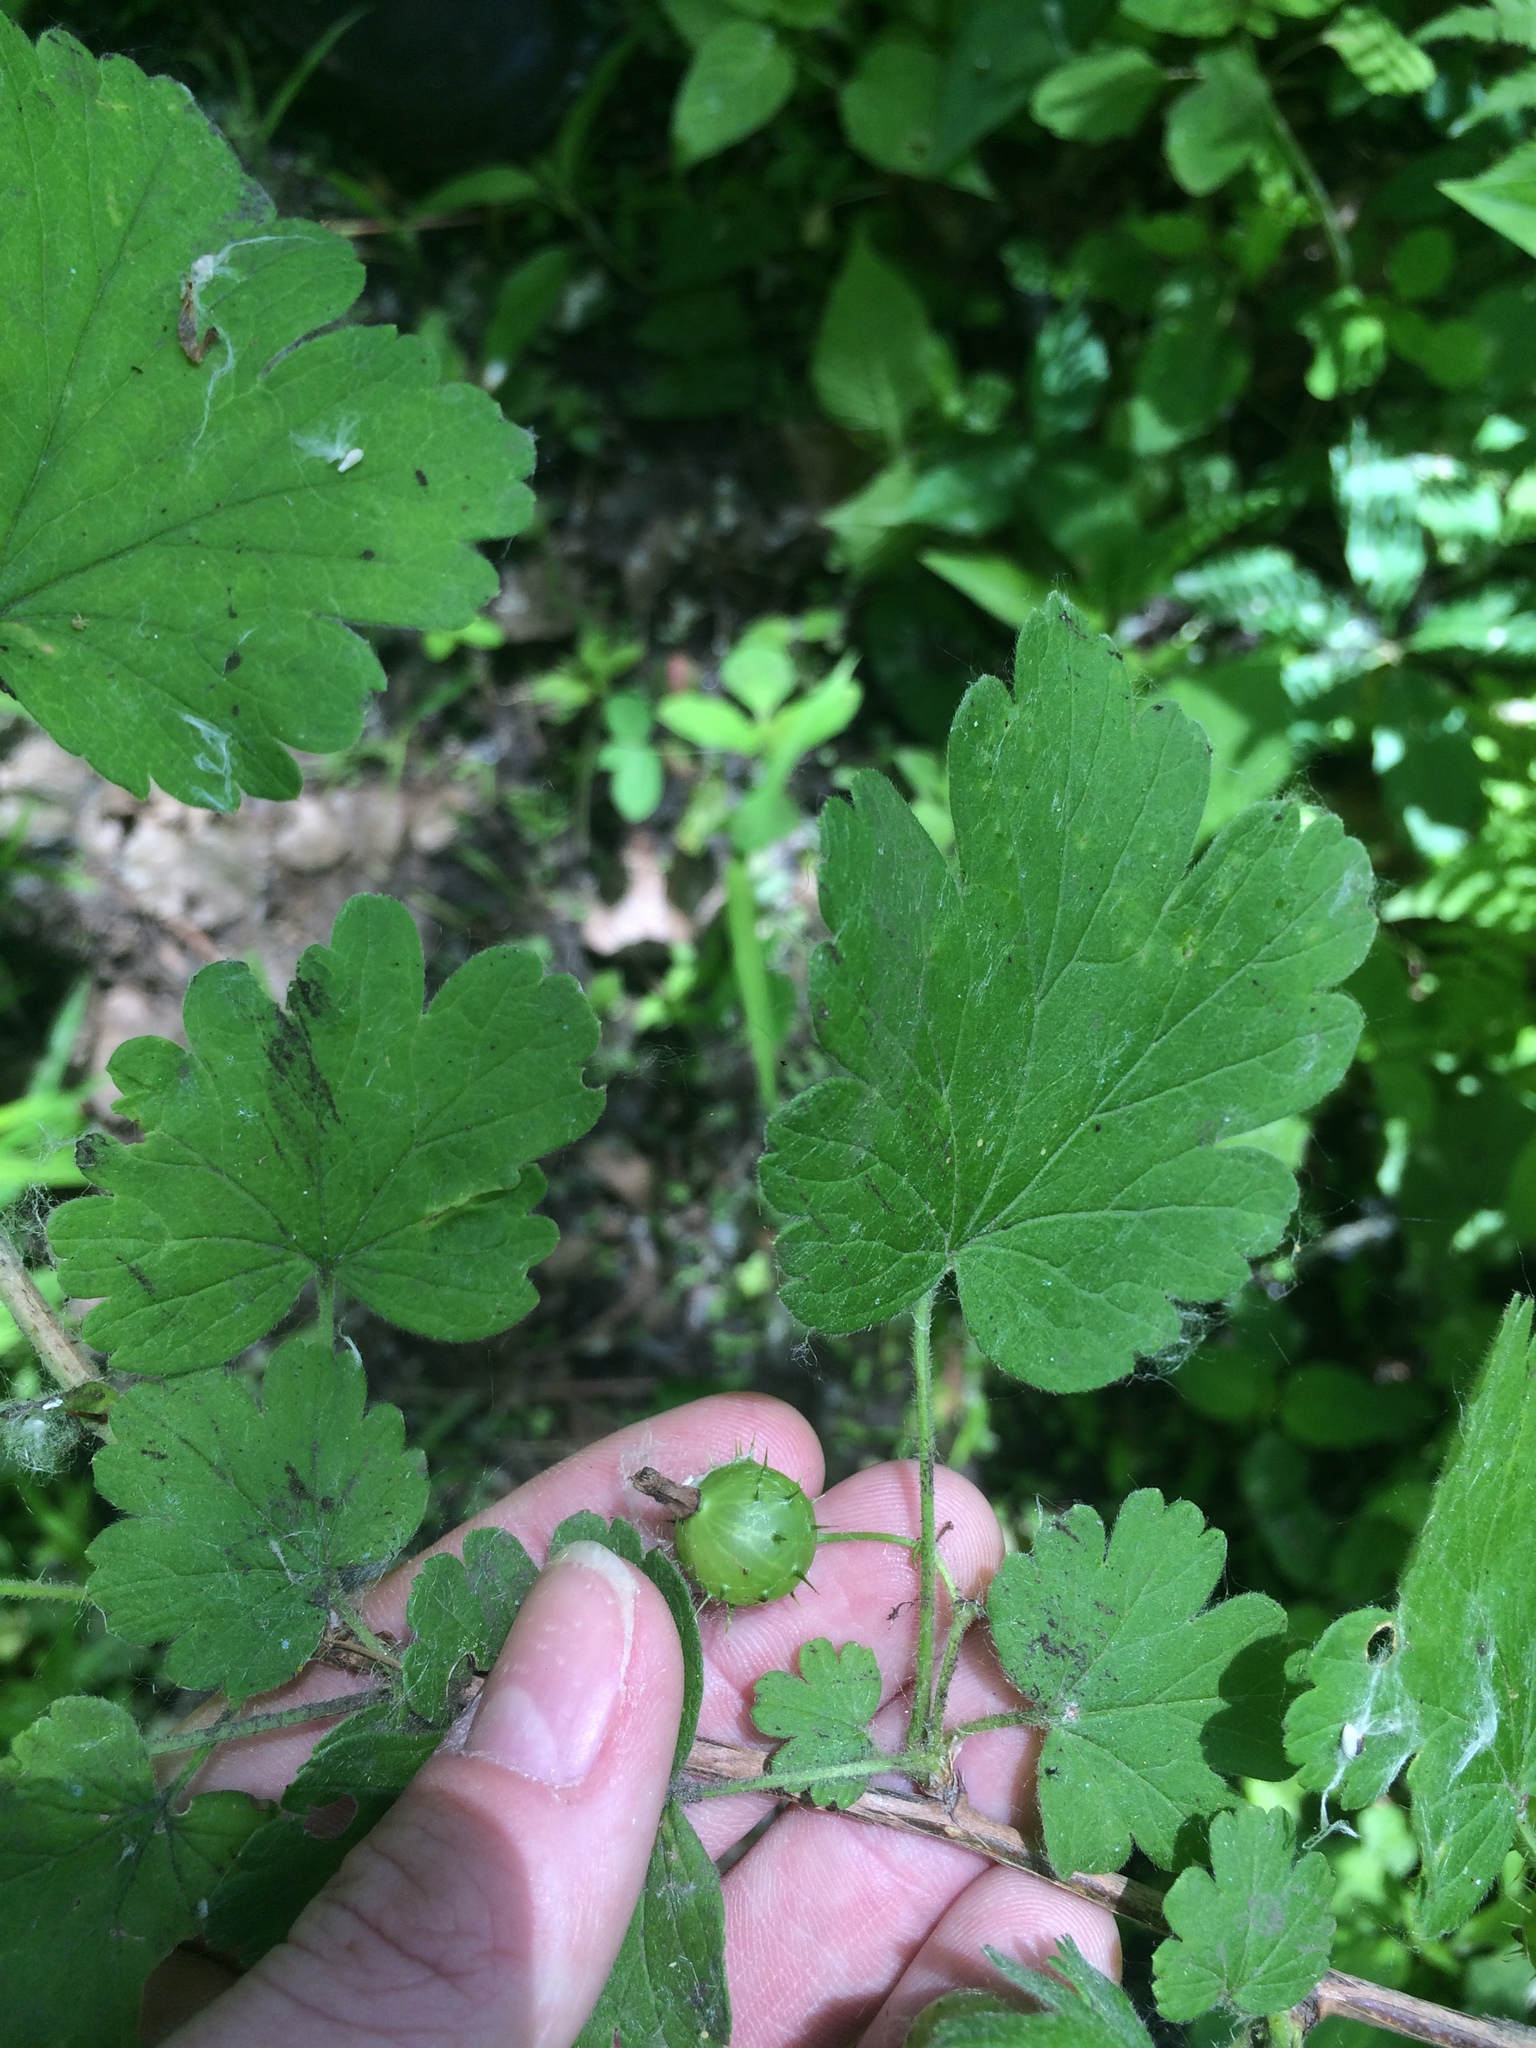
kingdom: Plantae
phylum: Tracheophyta
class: Magnoliopsida
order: Saxifragales
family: Grossulariaceae
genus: Ribes
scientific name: Ribes cynosbati
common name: American gooseberry
